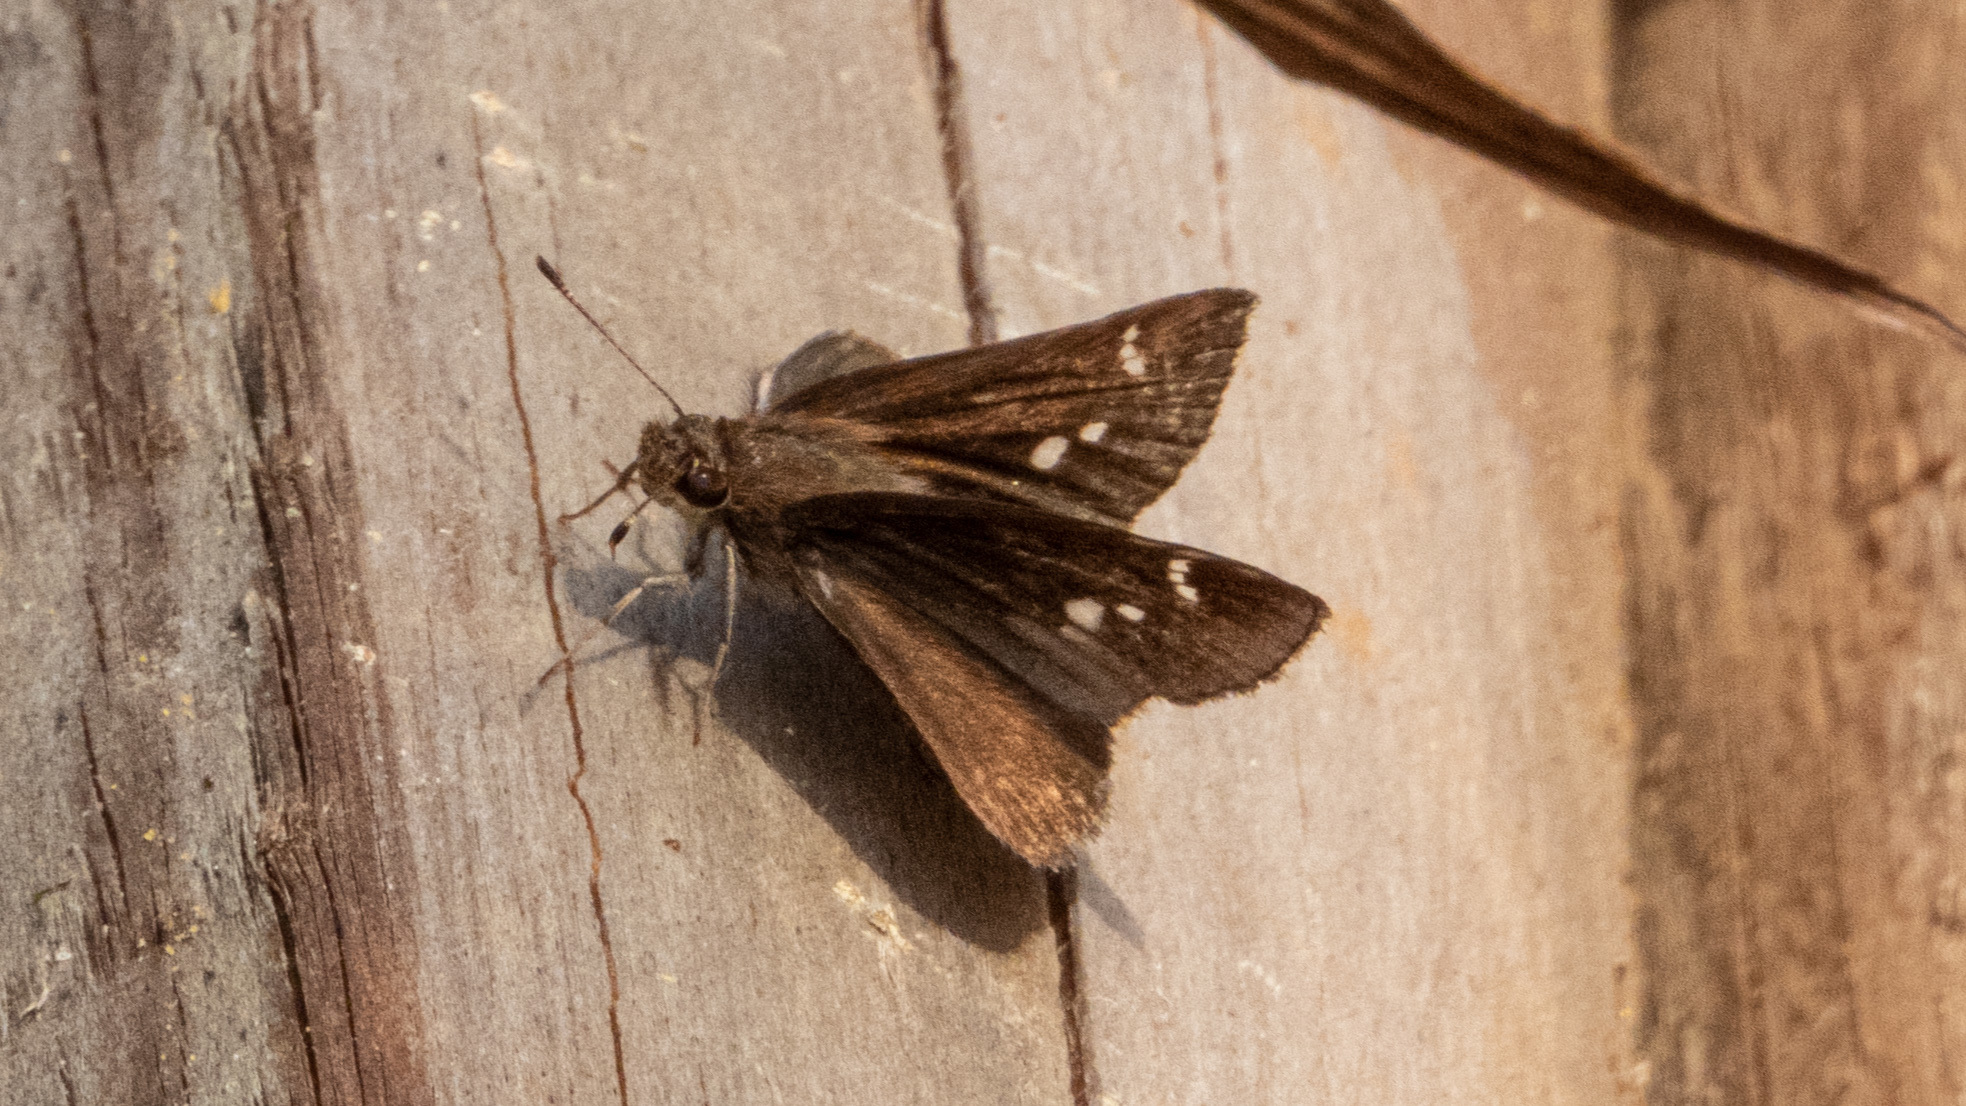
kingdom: Animalia
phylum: Arthropoda
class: Insecta
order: Lepidoptera
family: Hesperiidae
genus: Lerema
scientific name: Lerema accius
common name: Clouded skipper
